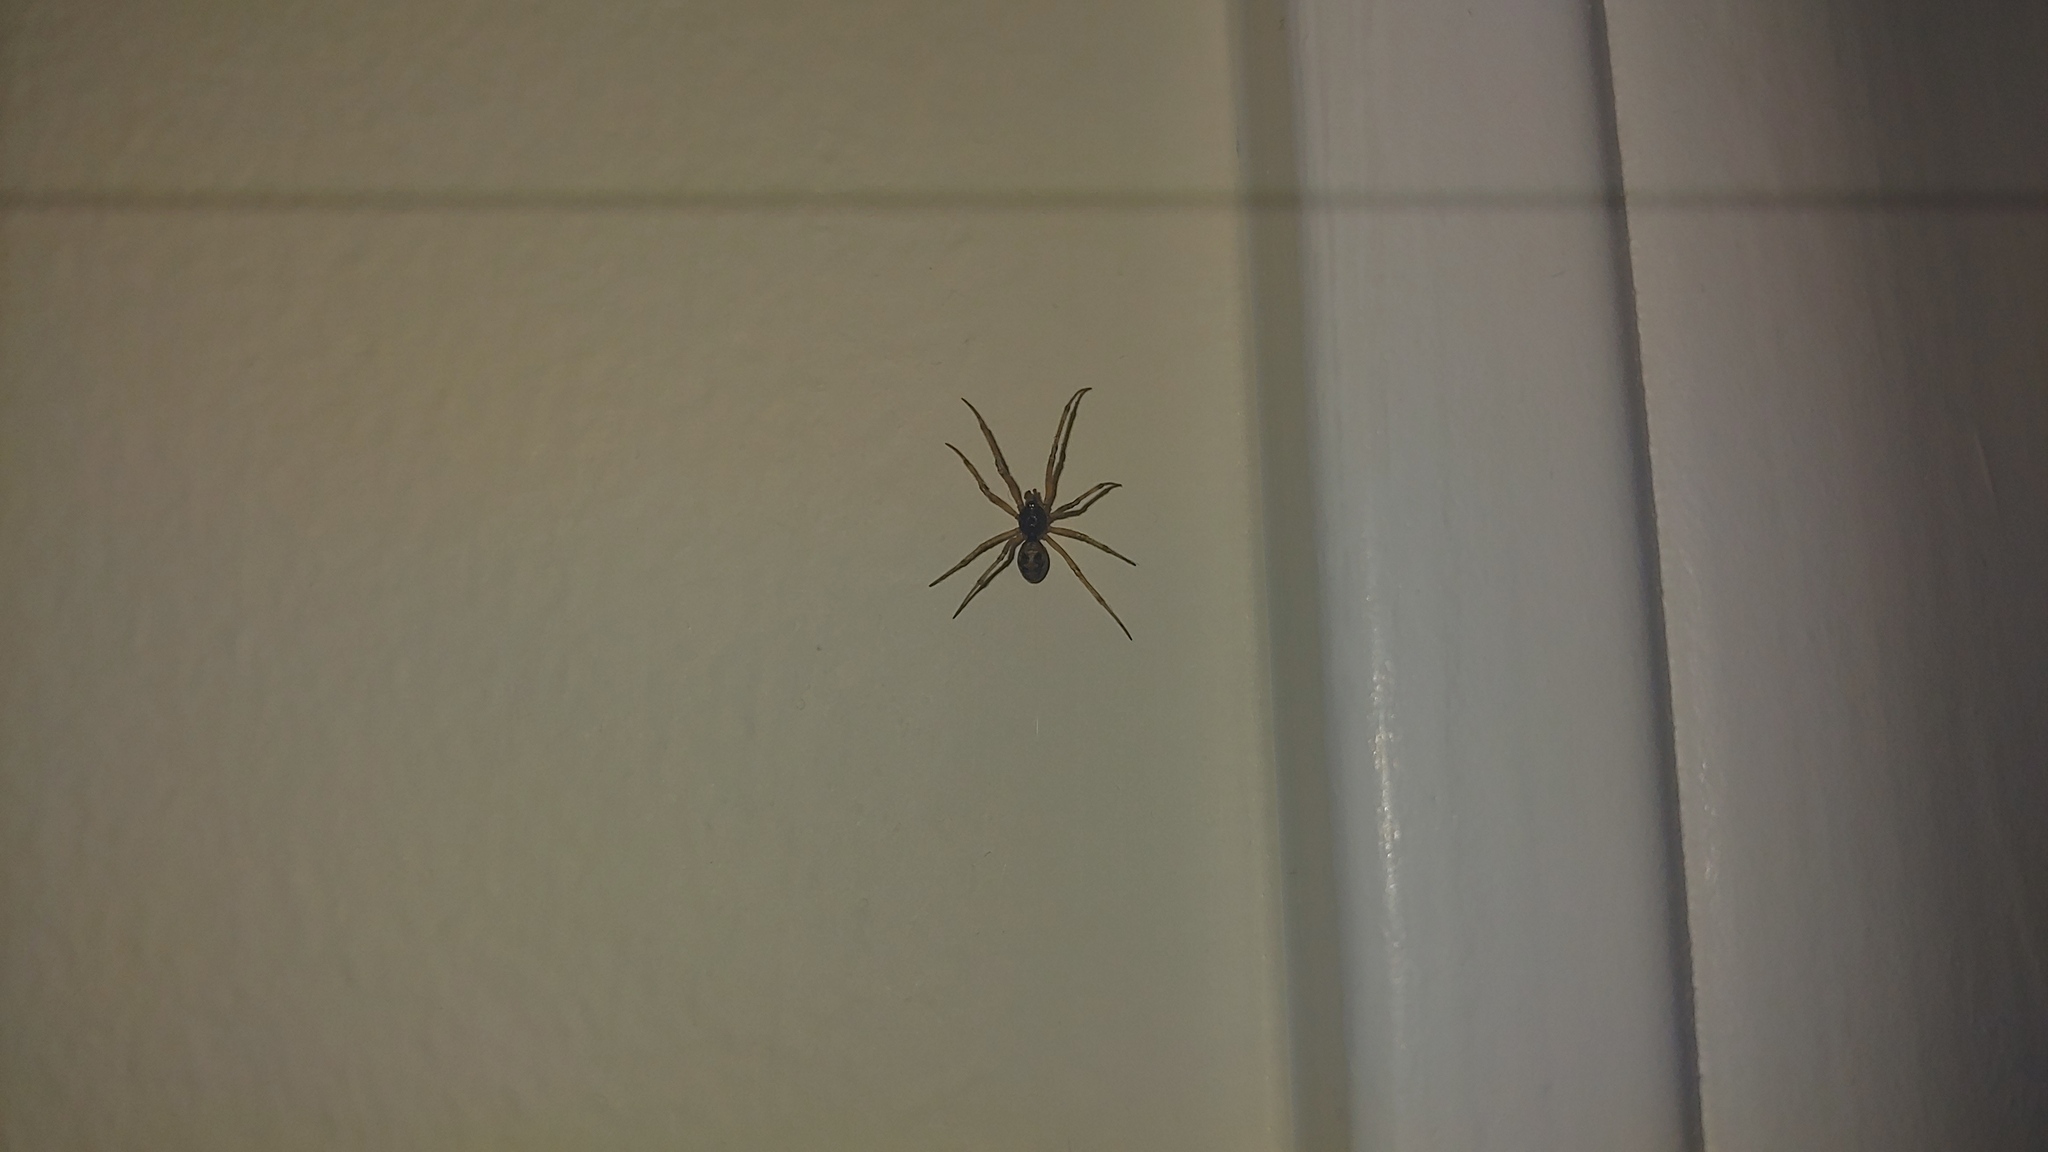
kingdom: Animalia
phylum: Arthropoda
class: Arachnida
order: Araneae
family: Theridiidae
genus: Steatoda
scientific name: Steatoda triangulosa
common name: Triangulate bud spider
